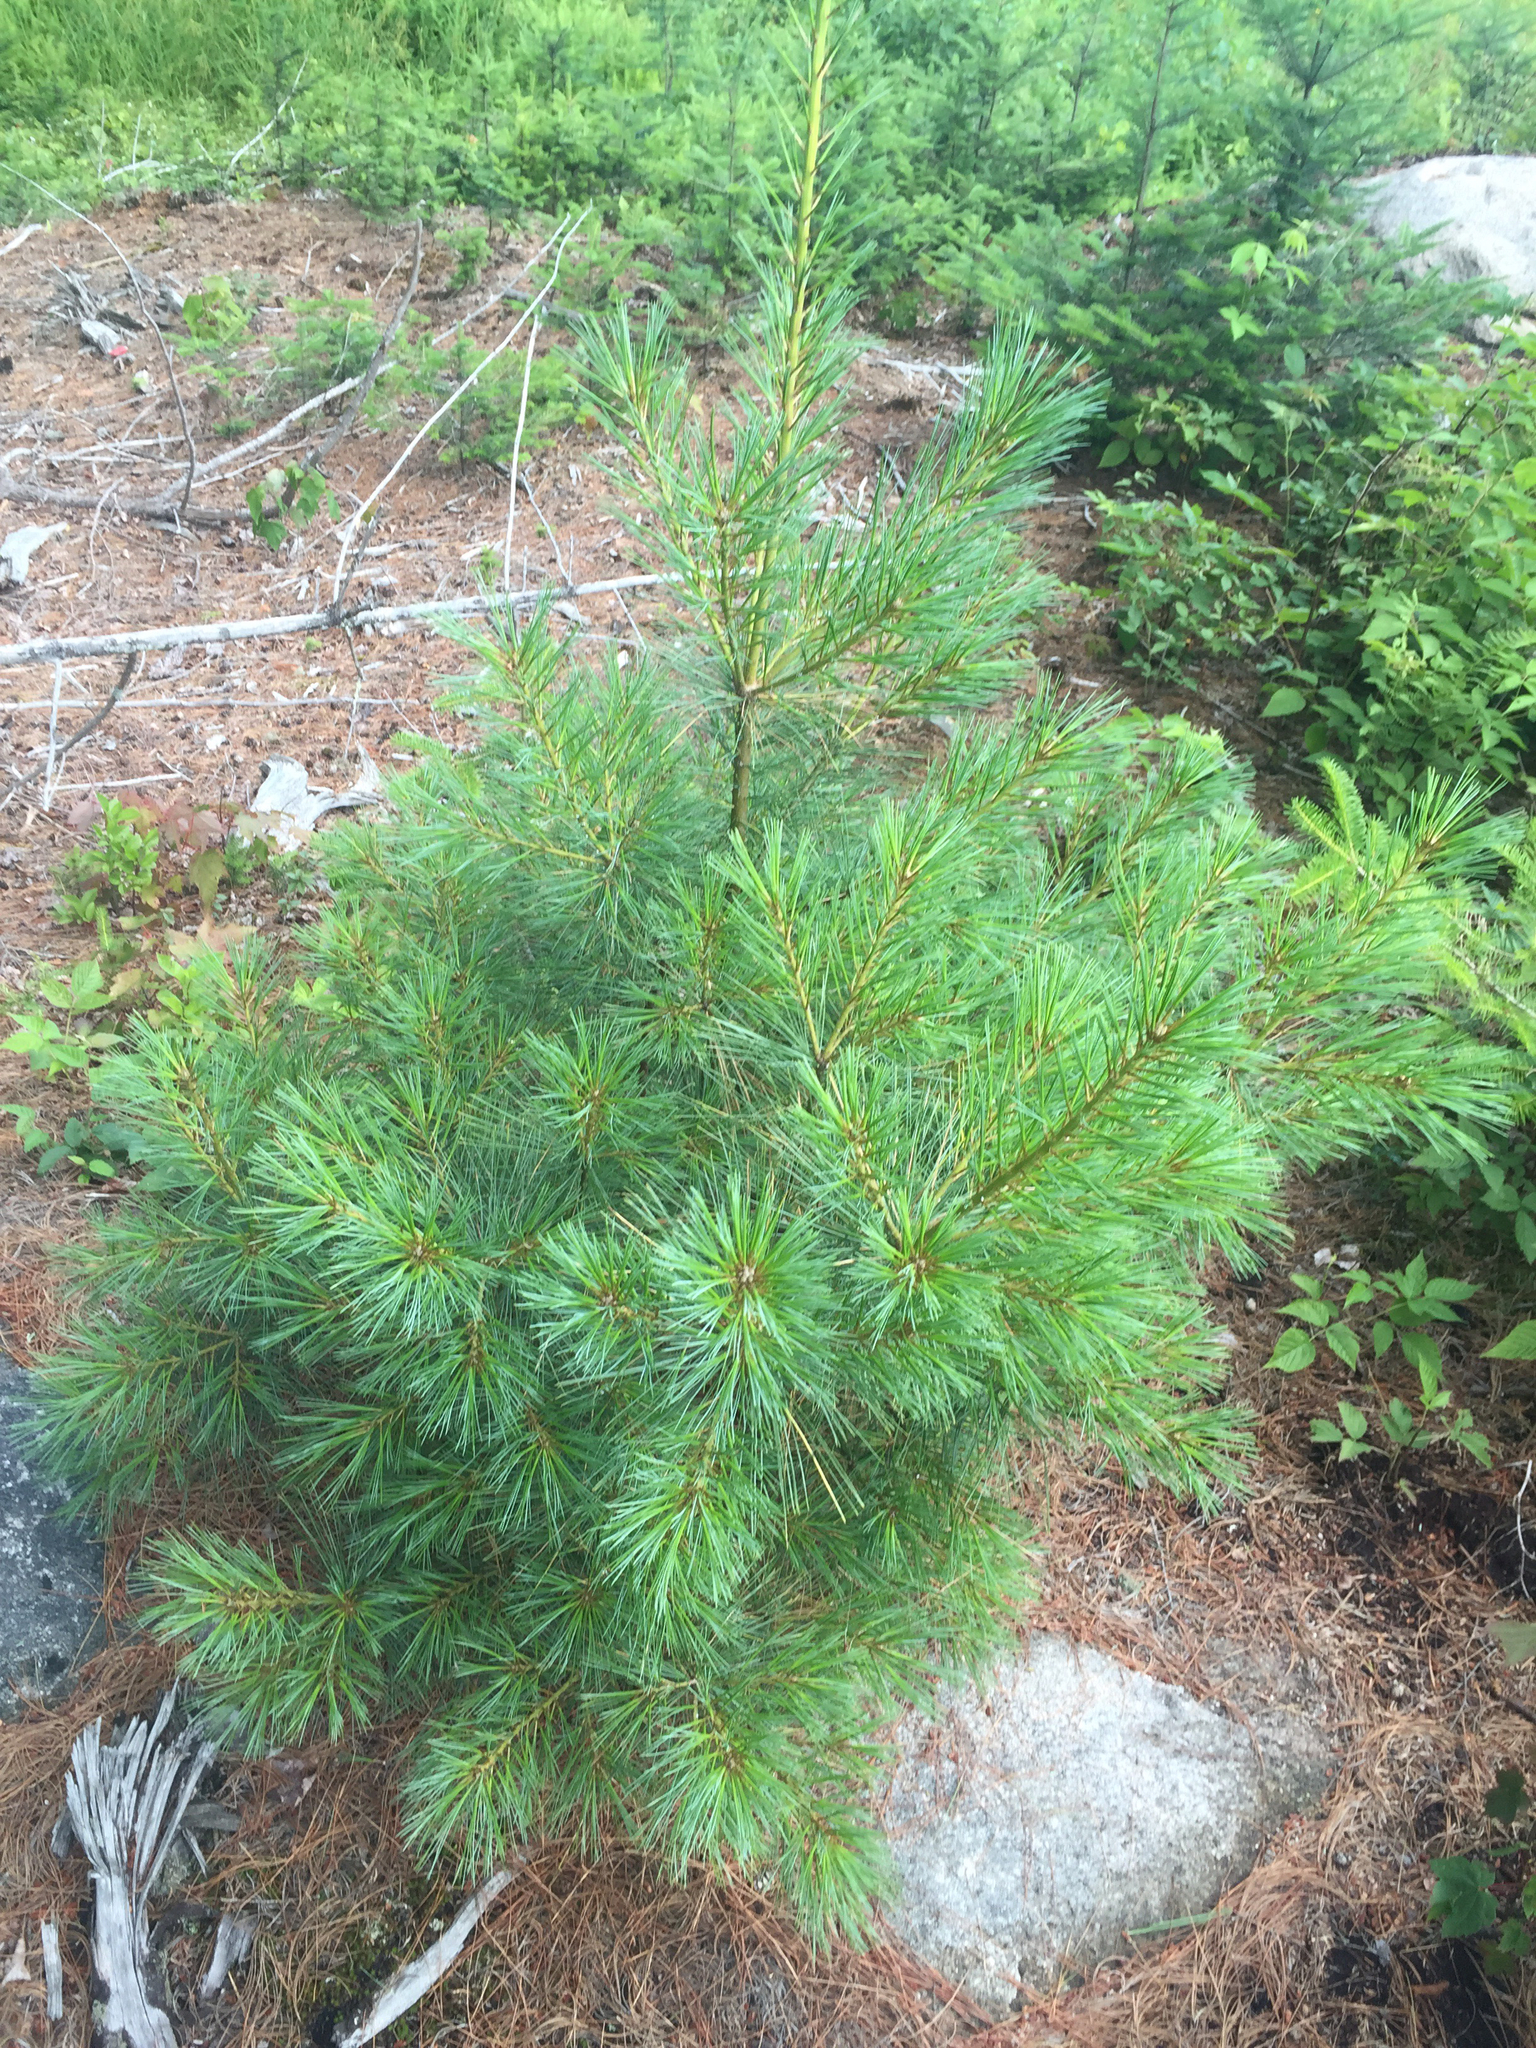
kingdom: Plantae
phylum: Tracheophyta
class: Pinopsida
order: Pinales
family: Pinaceae
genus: Pinus
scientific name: Pinus strobus
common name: Weymouth pine
